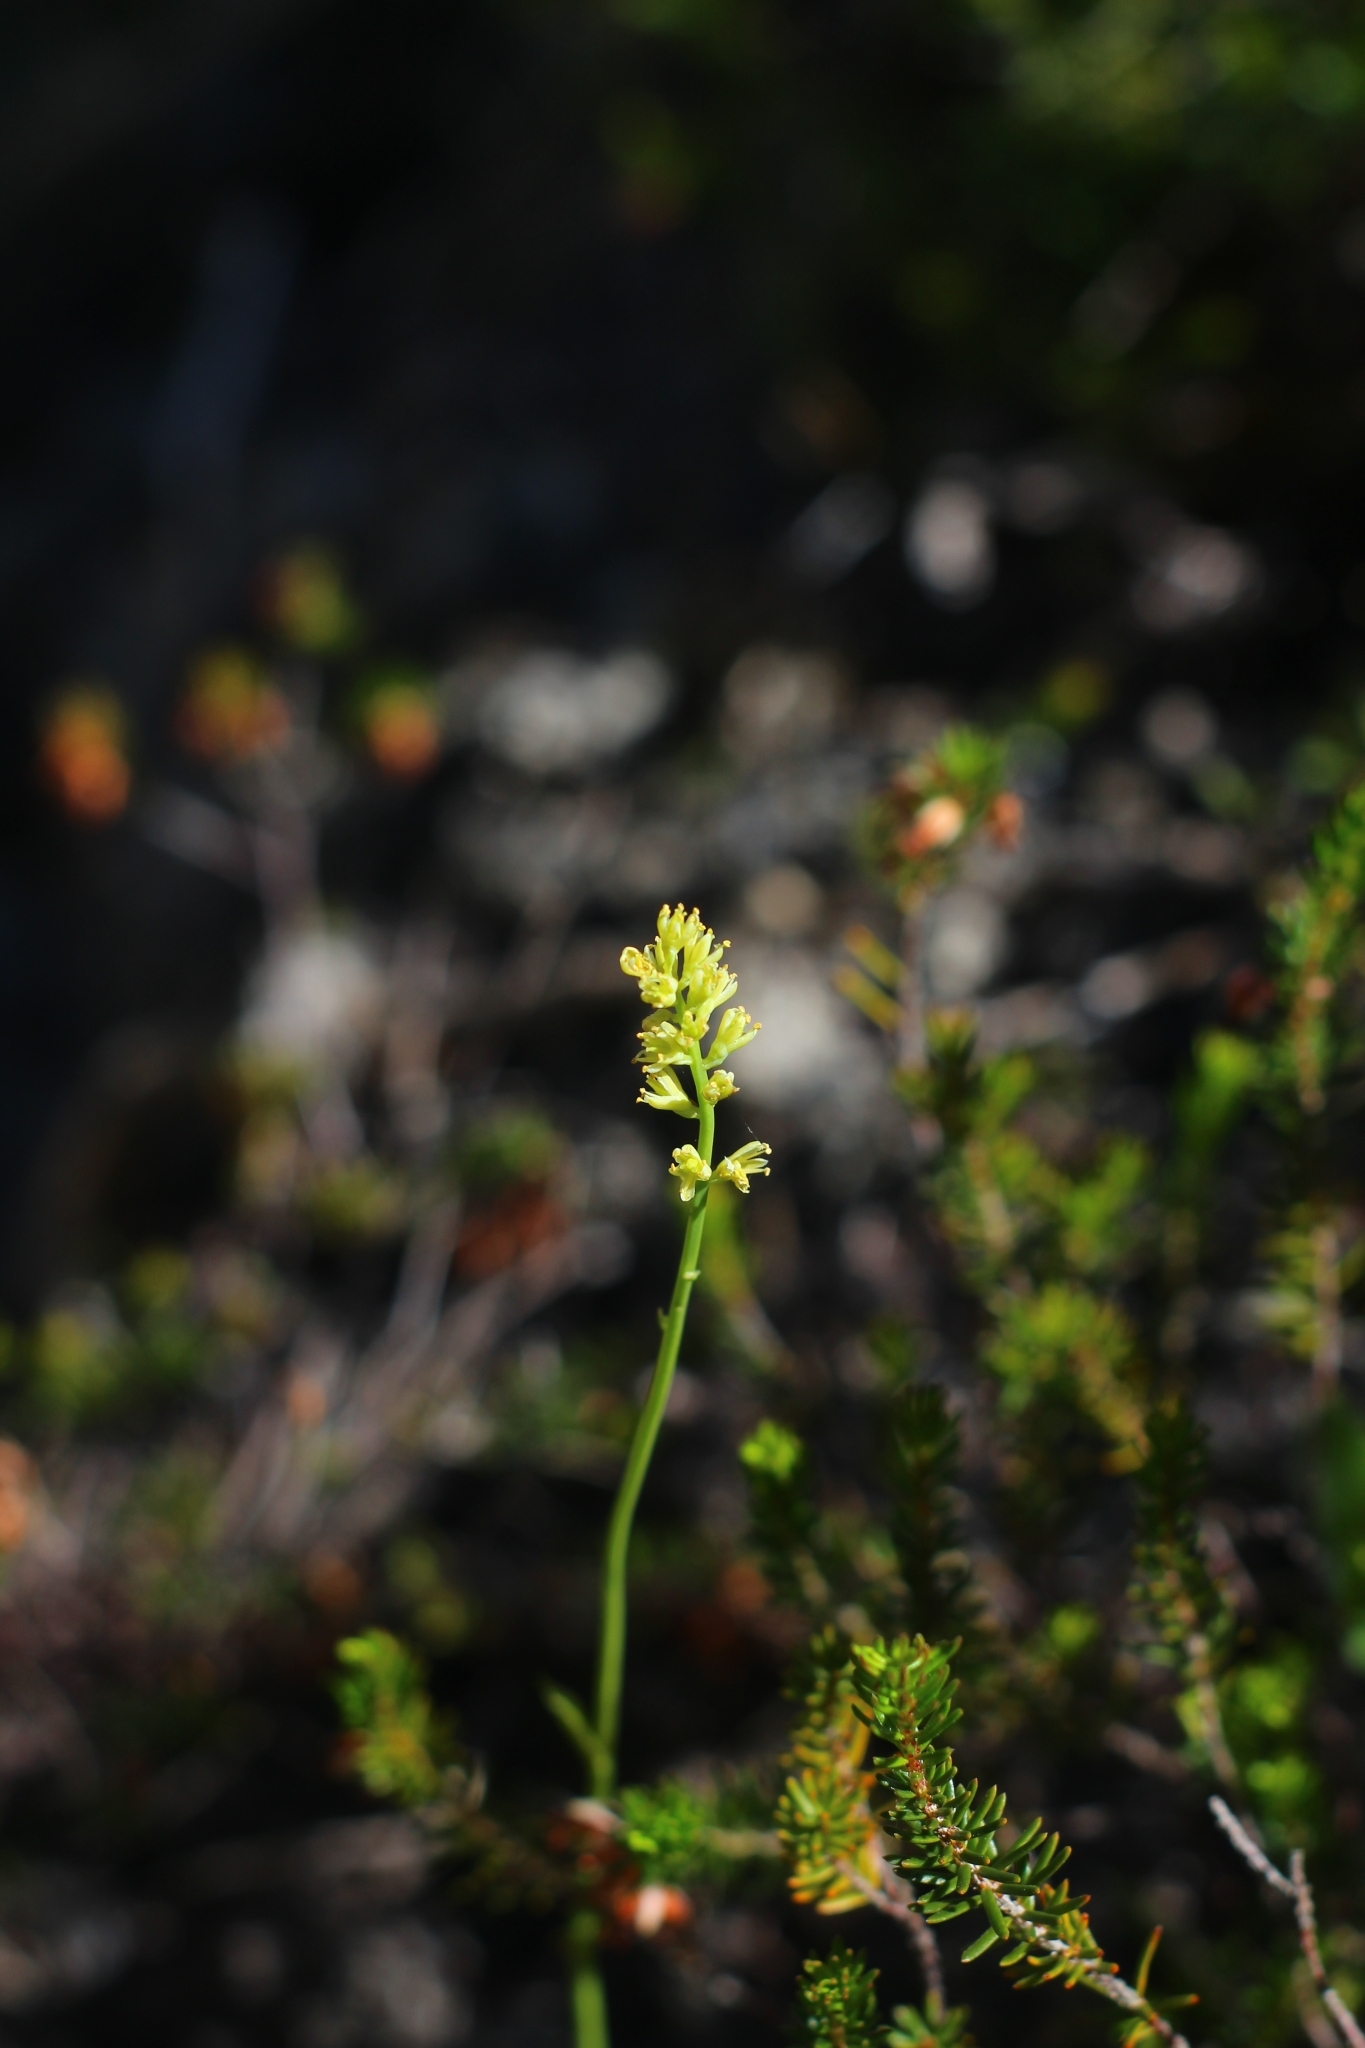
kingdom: Plantae
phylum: Tracheophyta
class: Liliopsida
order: Alismatales
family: Tofieldiaceae
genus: Tofieldia
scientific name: Tofieldia calyculata
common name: German-asphodel
